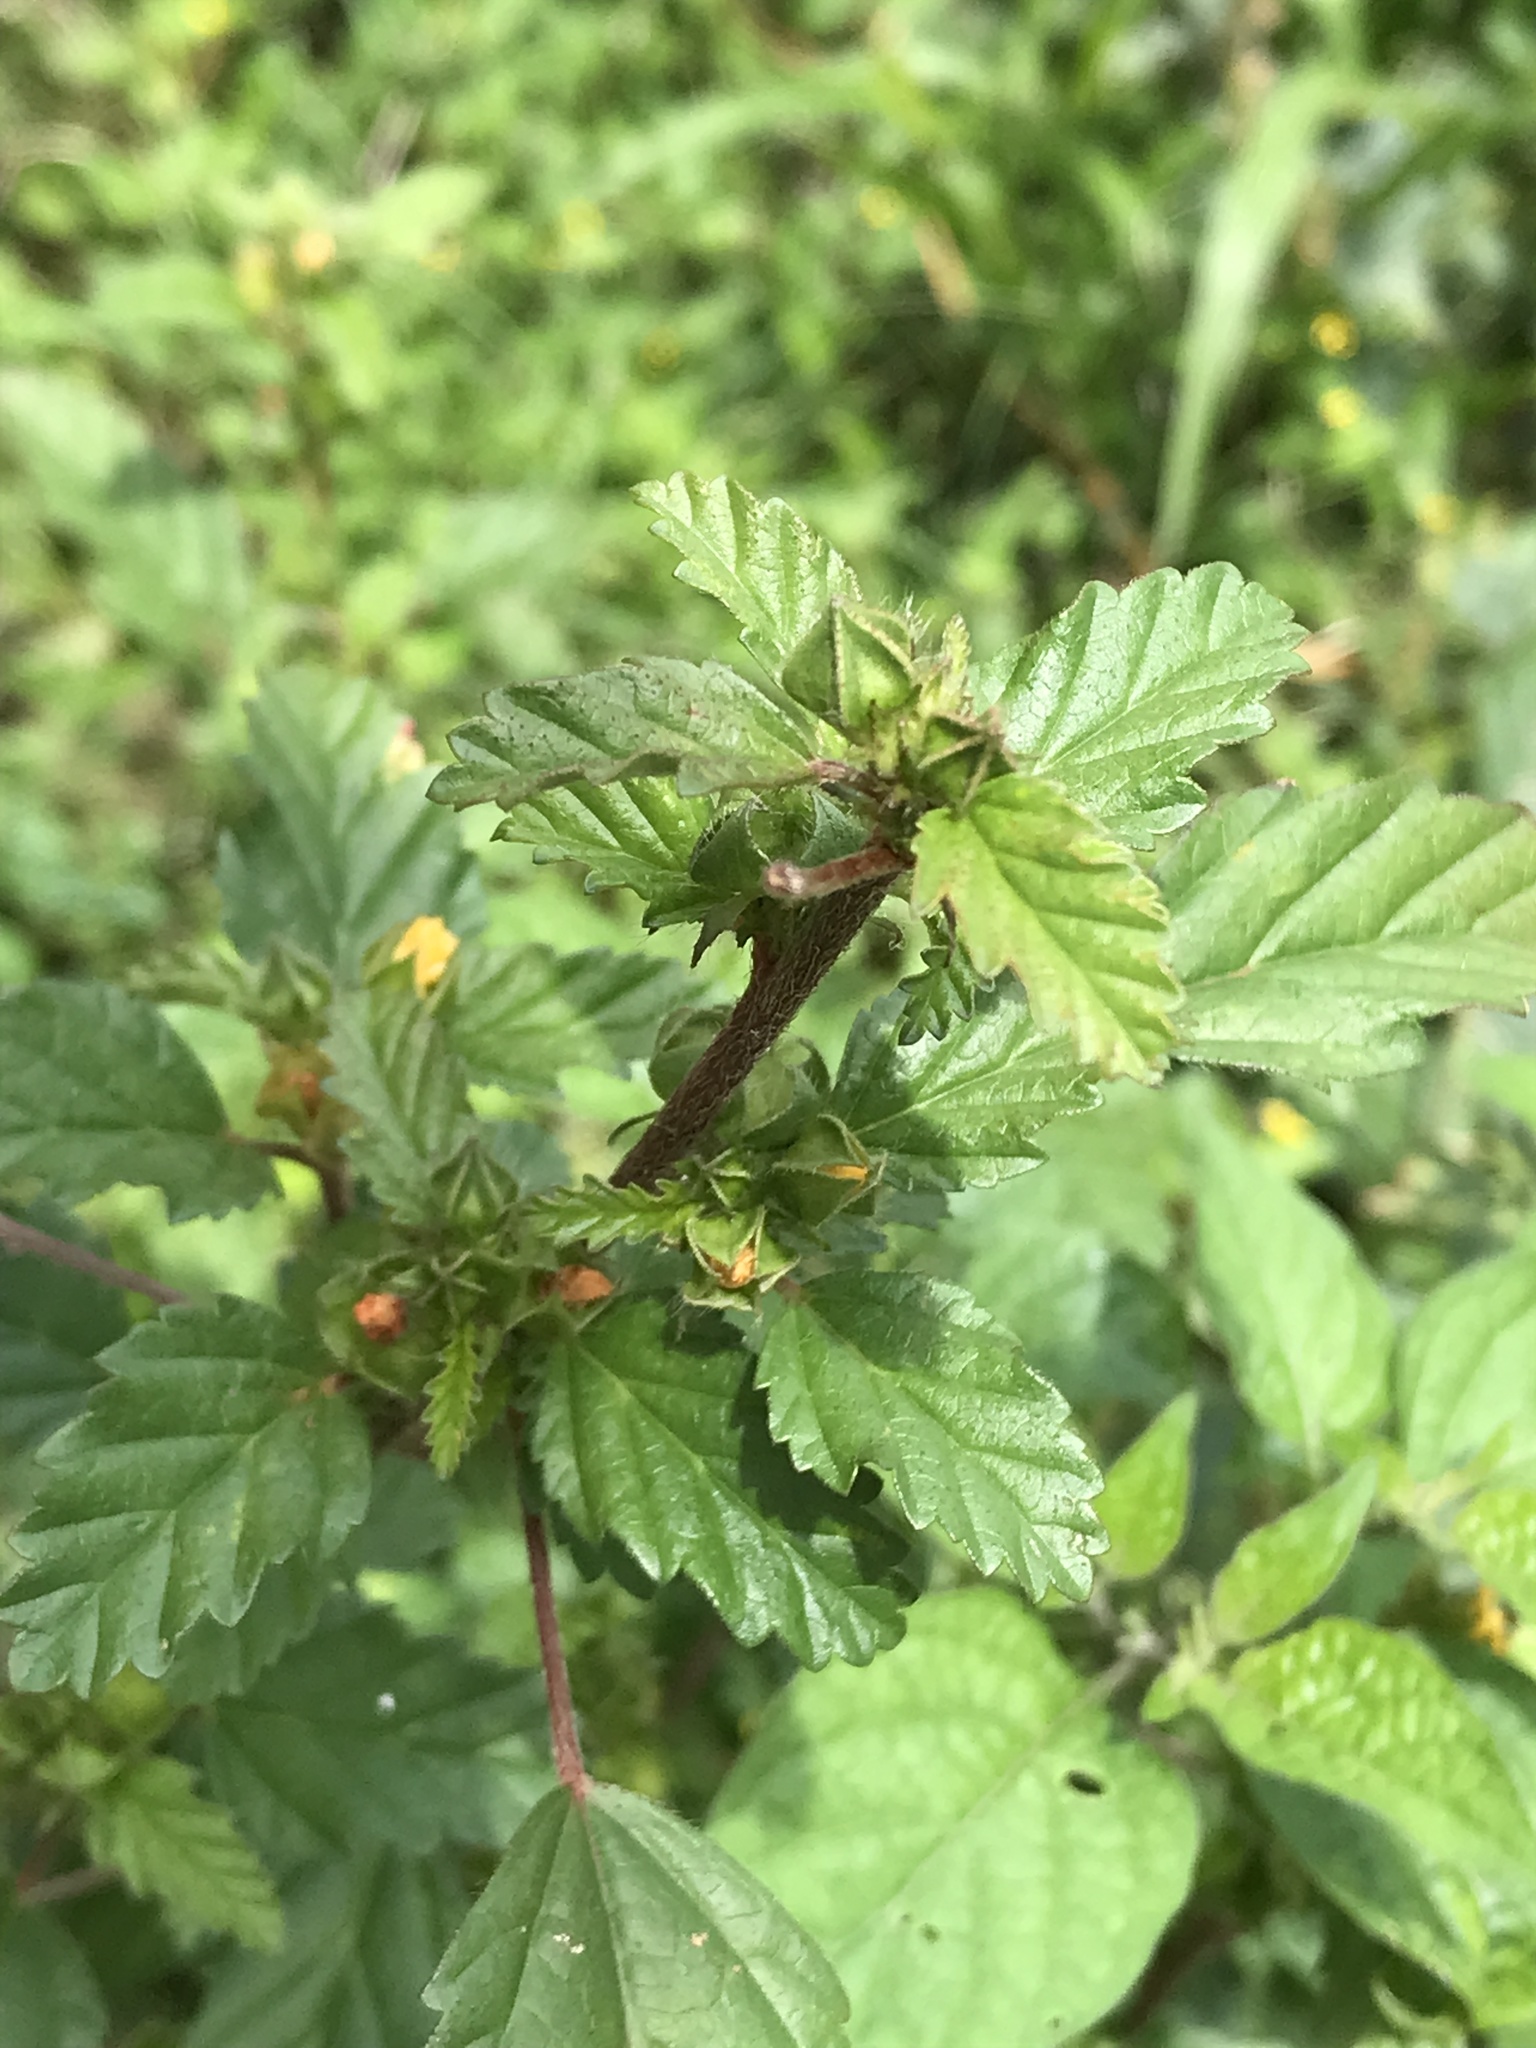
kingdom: Plantae
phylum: Tracheophyta
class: Magnoliopsida
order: Malvales
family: Malvaceae
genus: Malvastrum
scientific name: Malvastrum coromandelianum
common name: Threelobe false mallow
